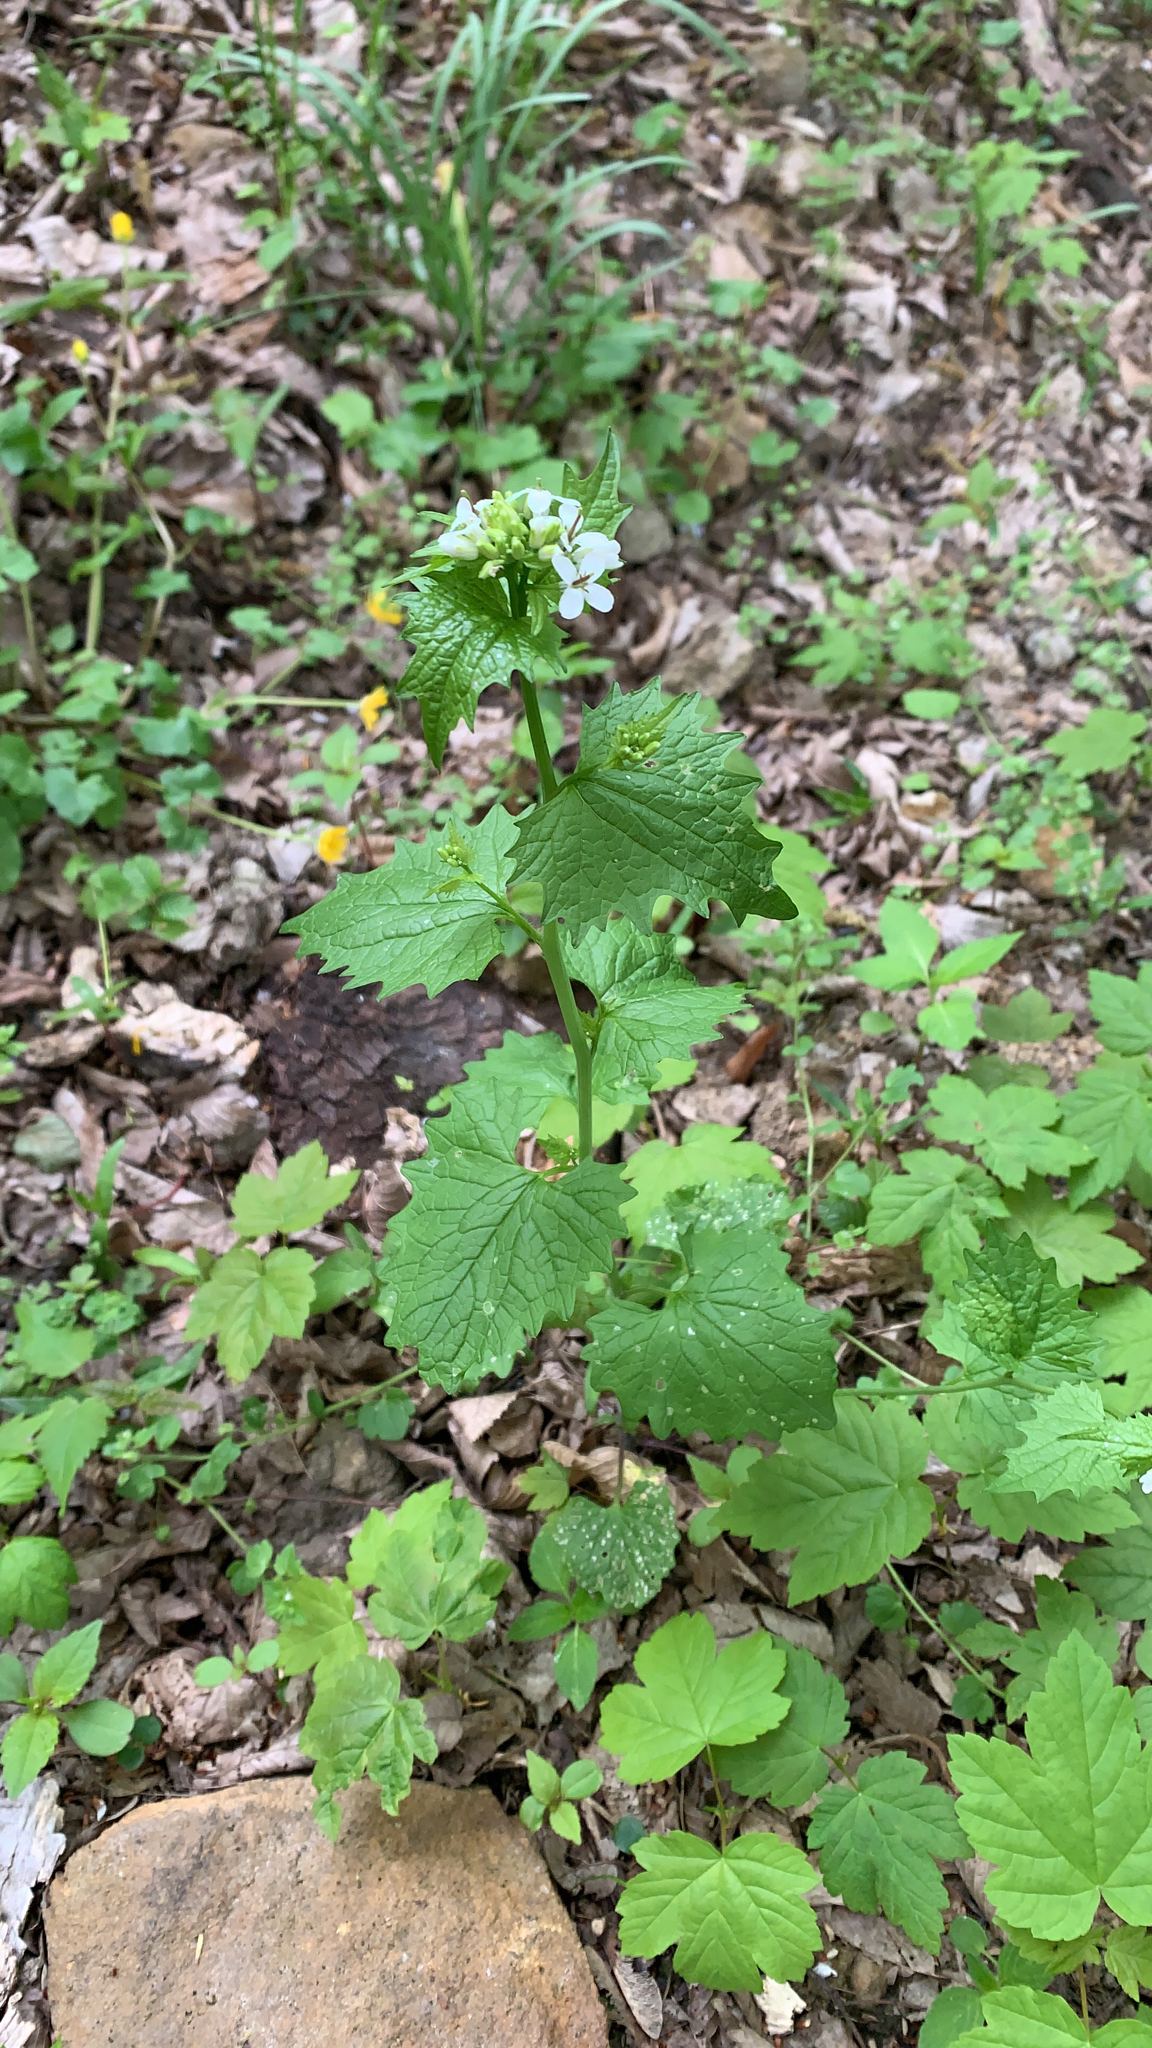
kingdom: Plantae
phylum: Tracheophyta
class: Magnoliopsida
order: Brassicales
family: Brassicaceae
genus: Alliaria
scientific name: Alliaria petiolata
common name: Garlic mustard
